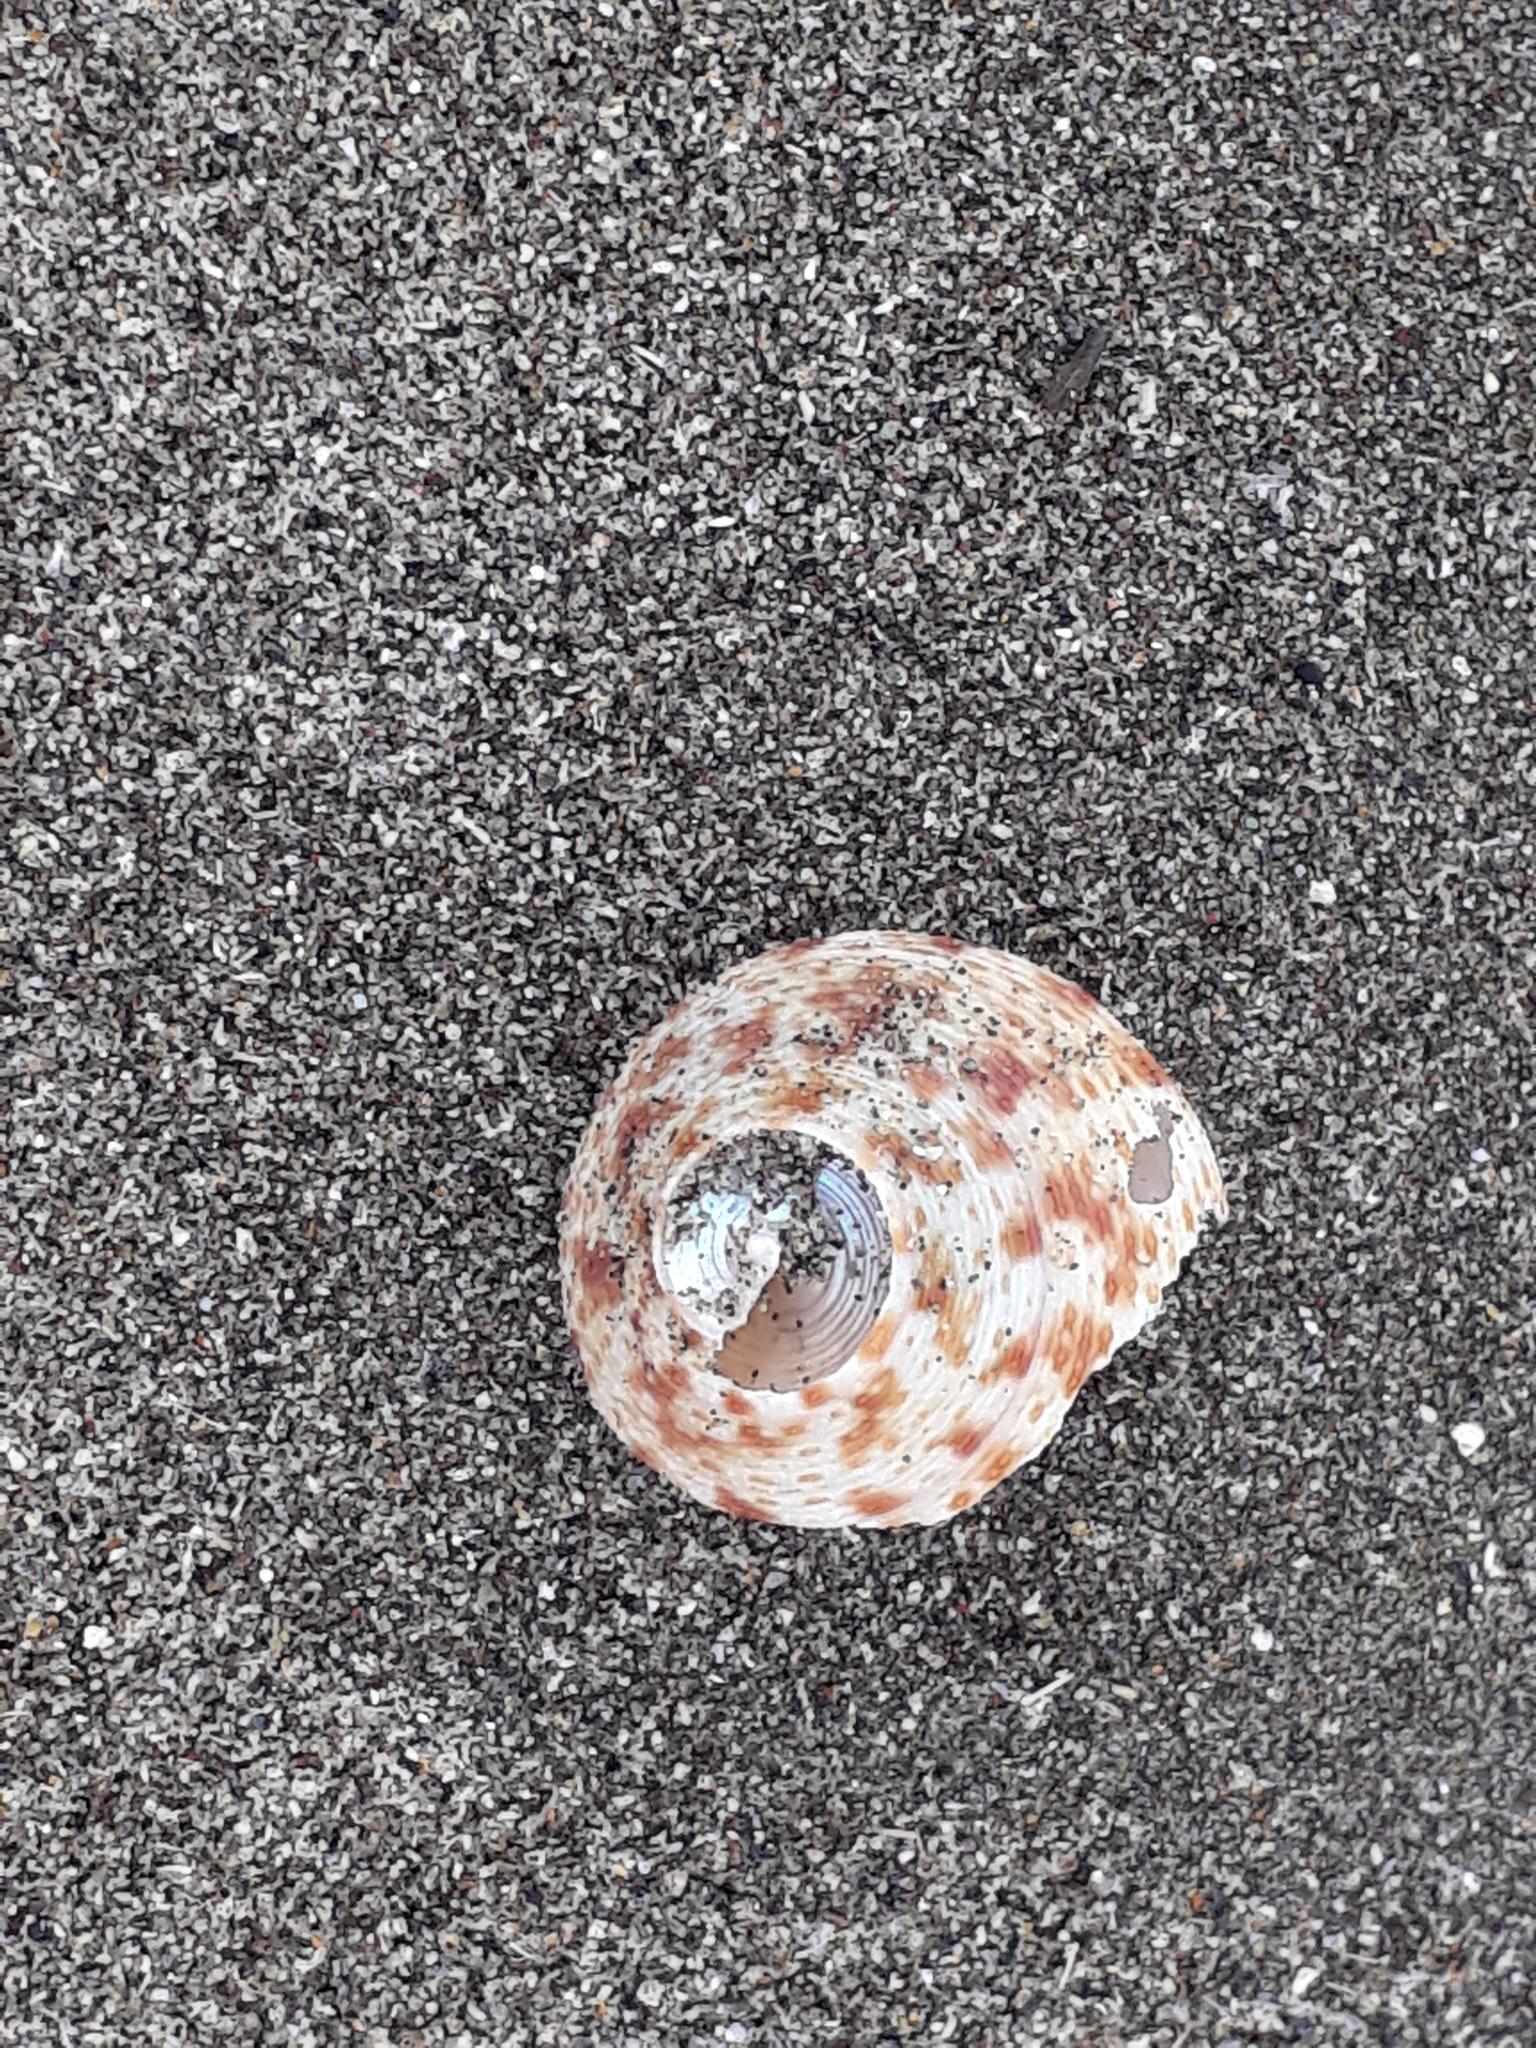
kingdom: Animalia
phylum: Mollusca
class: Gastropoda
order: Trochida
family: Calliostomatidae
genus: Maurea
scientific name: Maurea pellucida
